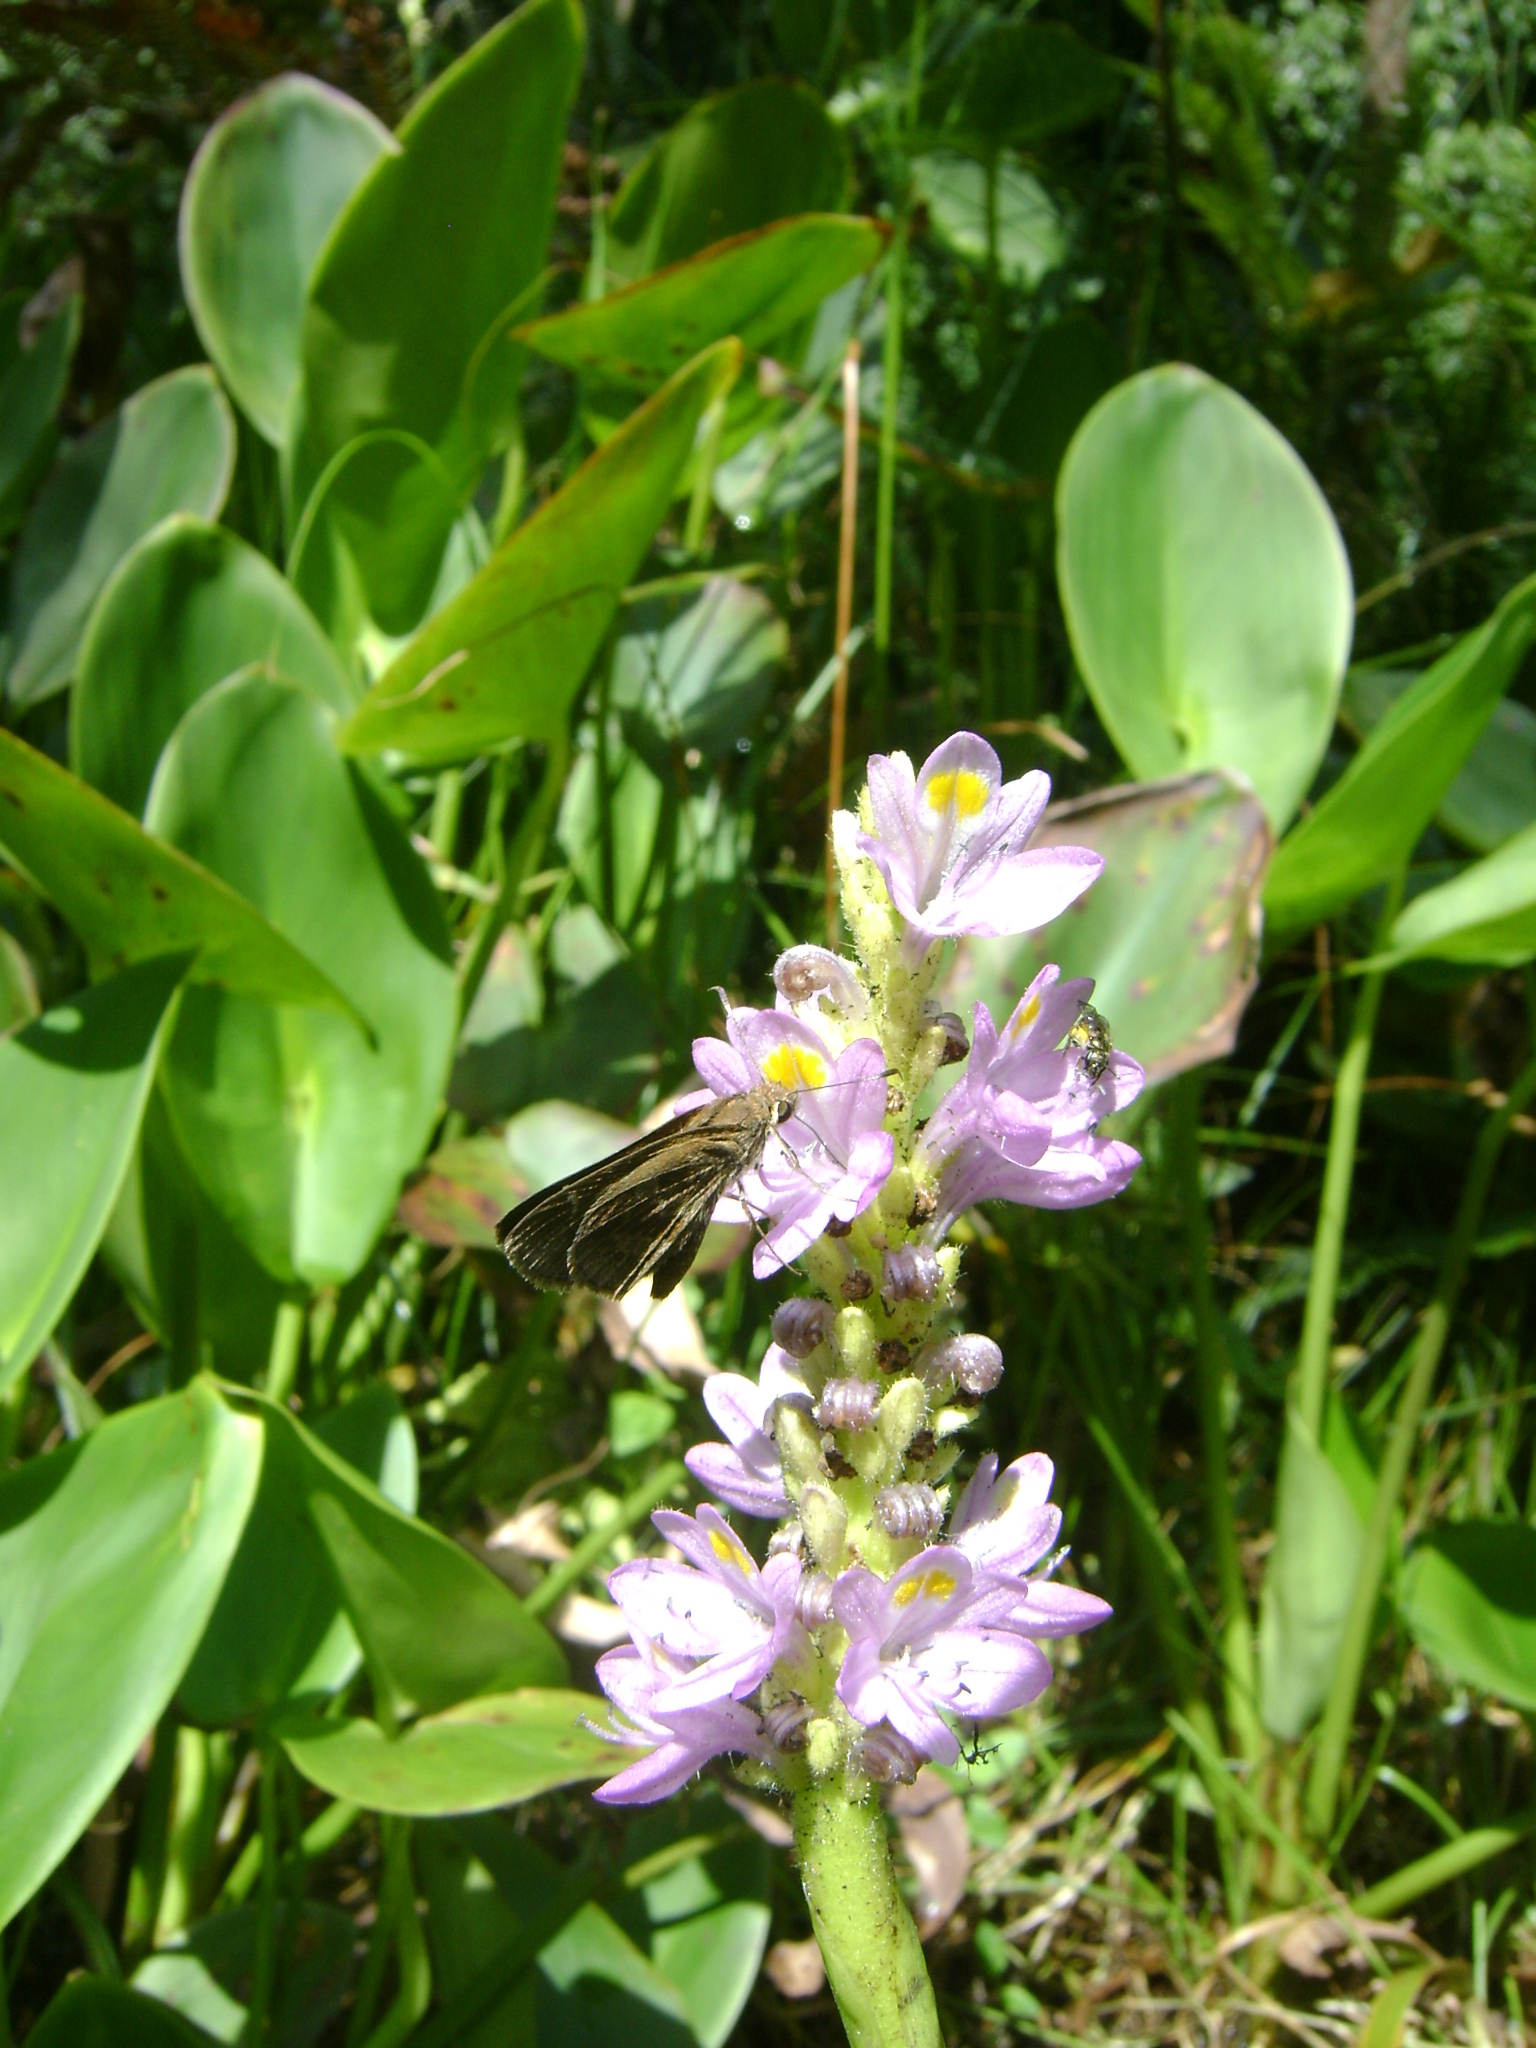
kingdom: Plantae
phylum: Tracheophyta
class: Liliopsida
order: Commelinales
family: Pontederiaceae
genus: Pontederia
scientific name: Pontederia sagittata
